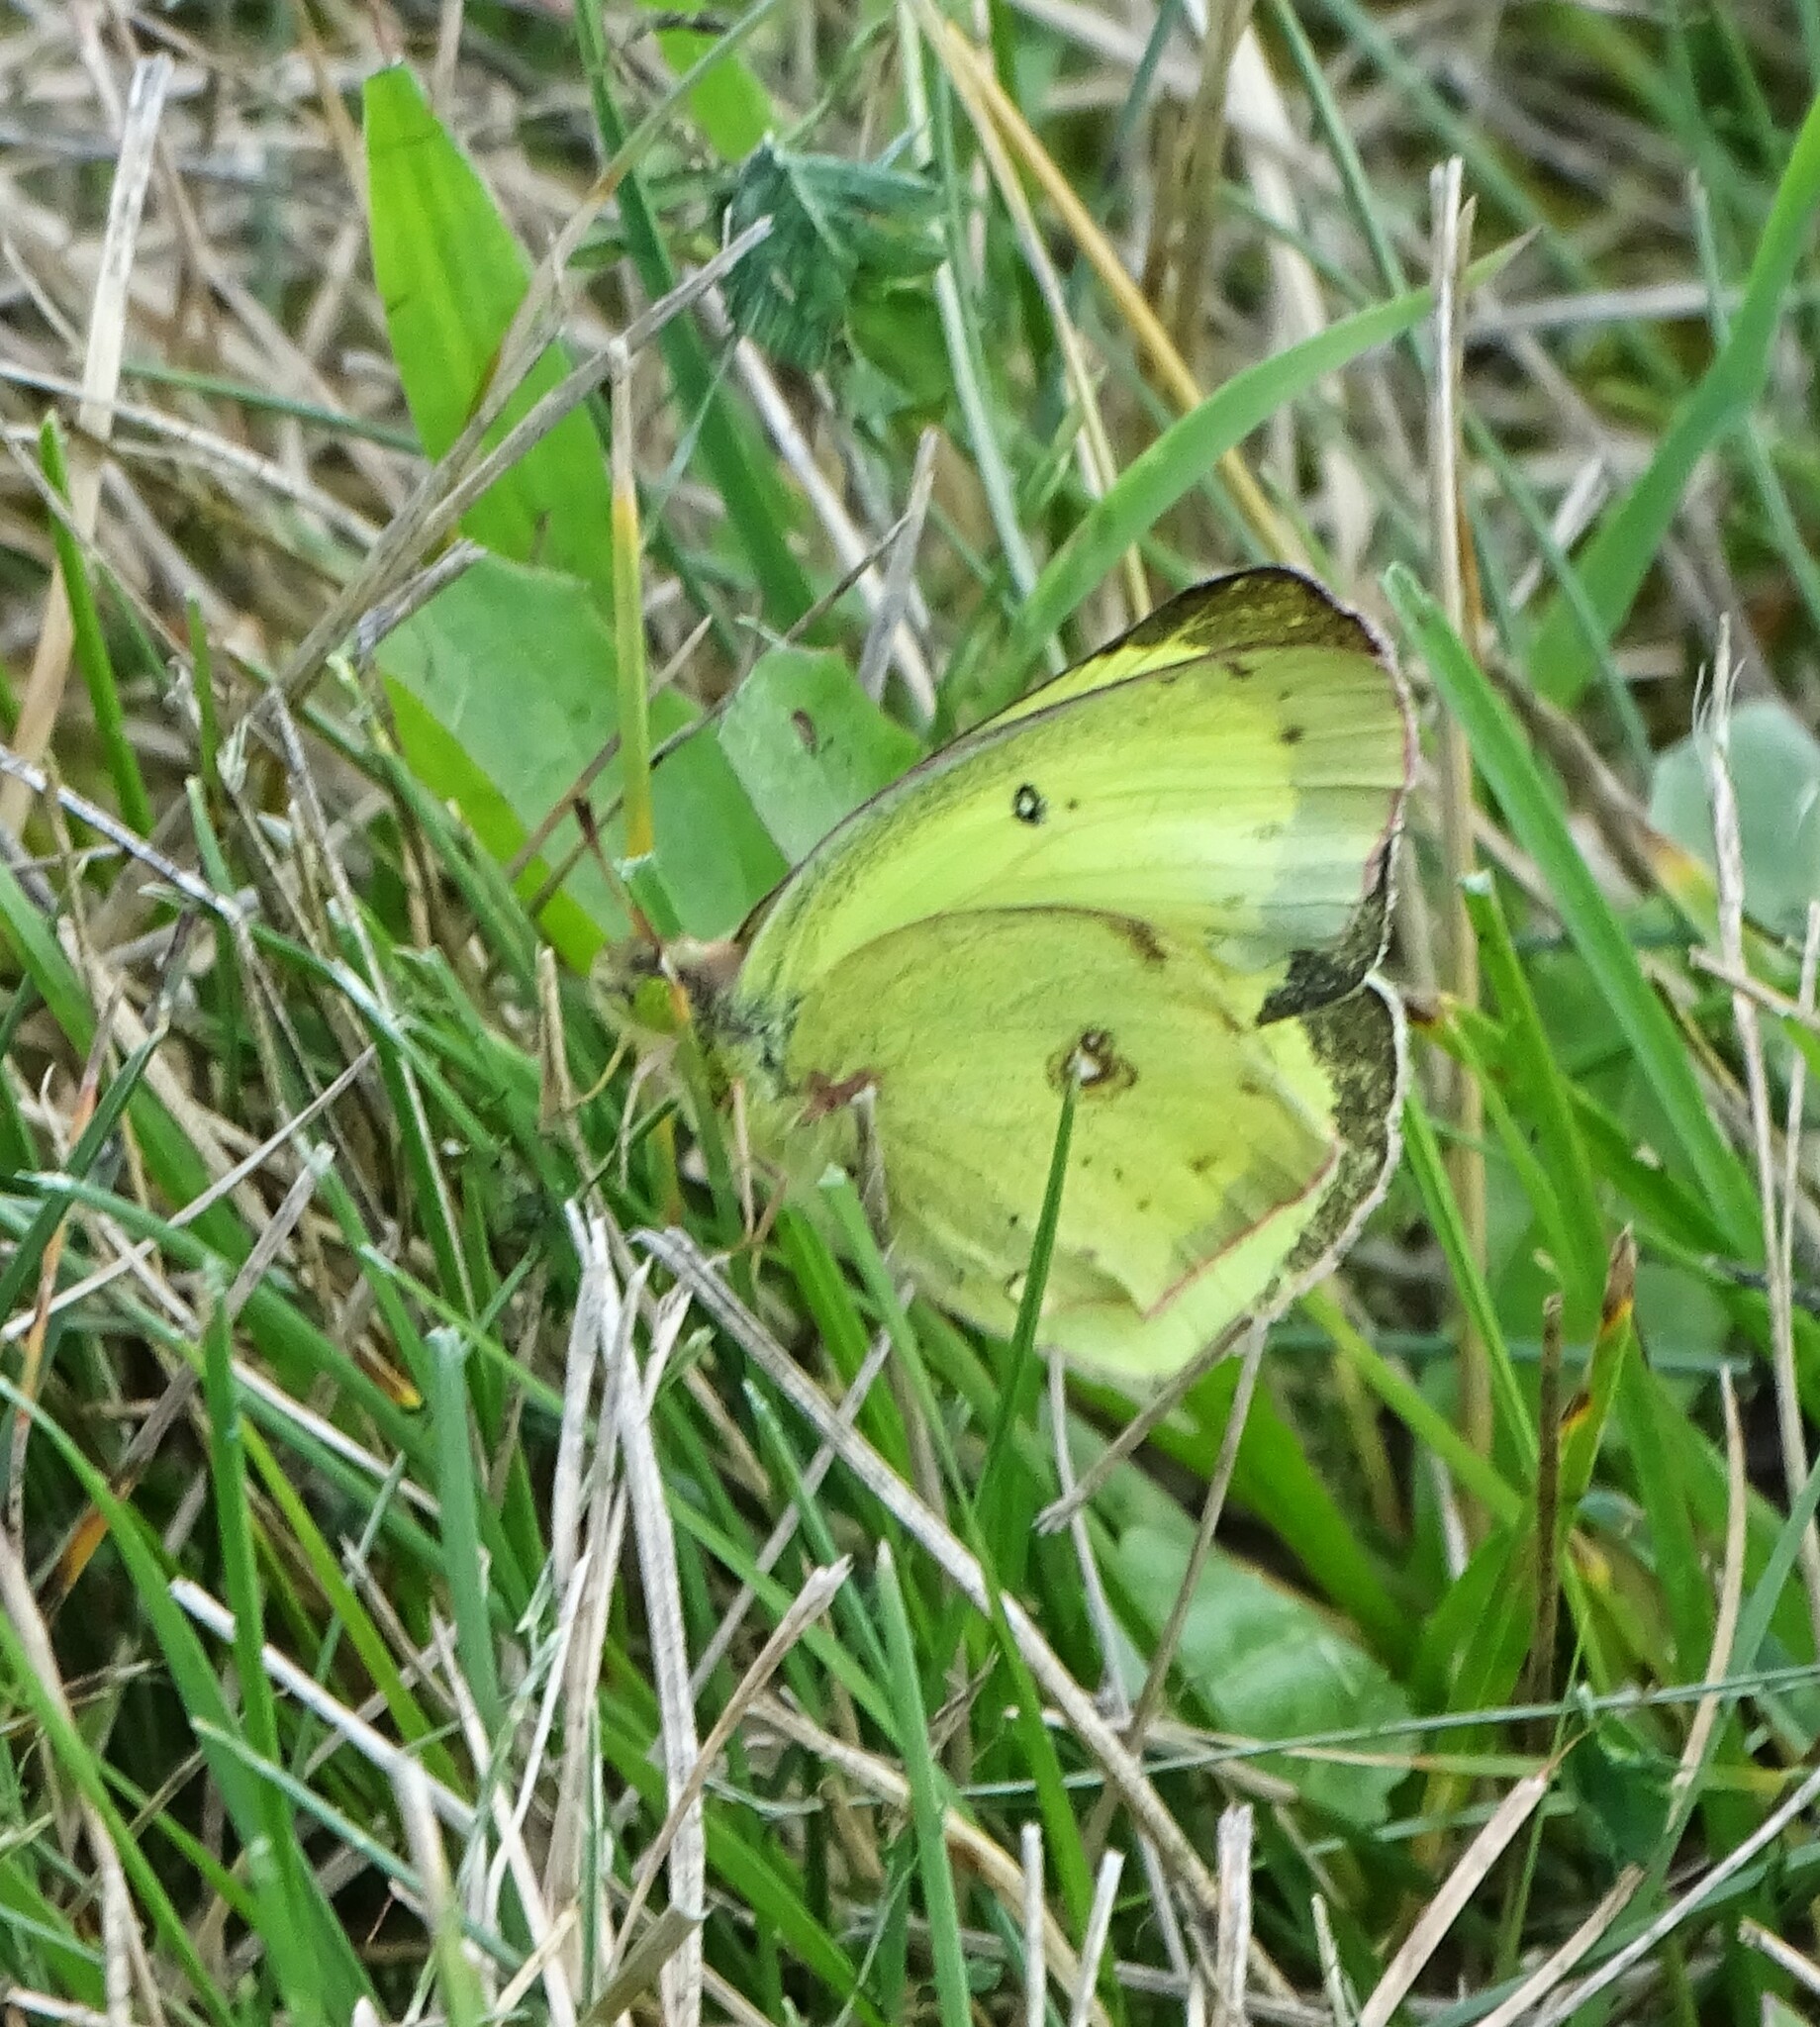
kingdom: Animalia
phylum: Arthropoda
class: Insecta
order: Lepidoptera
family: Pieridae
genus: Colias
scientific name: Colias philodice
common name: Clouded sulphur
